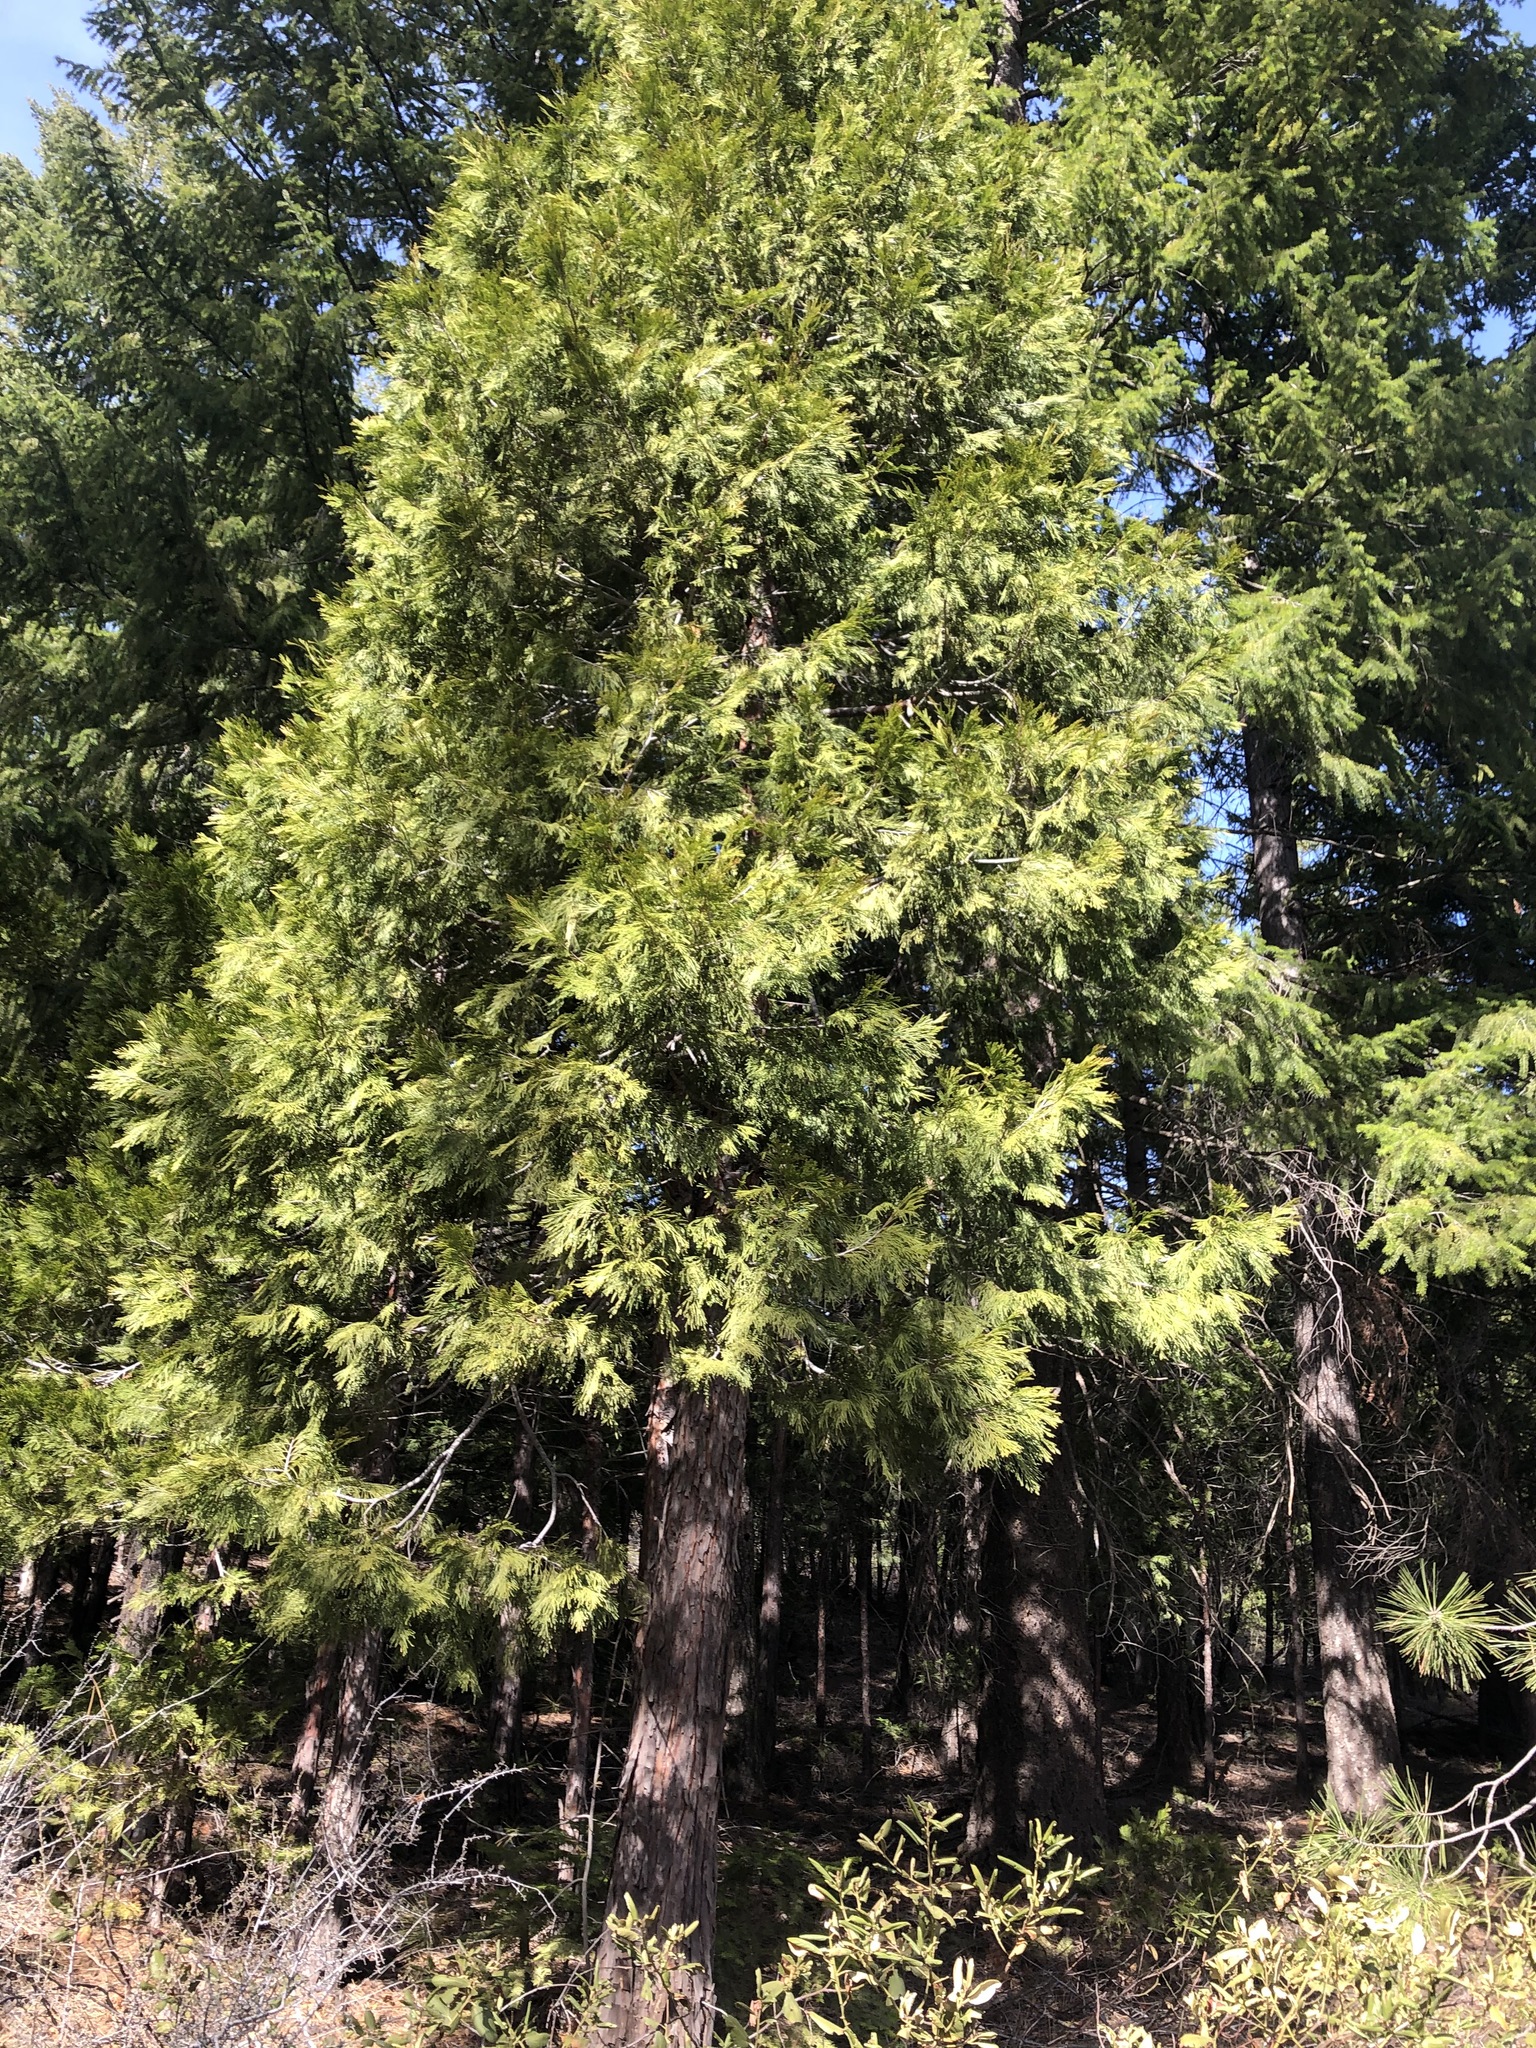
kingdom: Plantae
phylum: Tracheophyta
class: Pinopsida
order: Pinales
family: Cupressaceae
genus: Calocedrus
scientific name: Calocedrus decurrens
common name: Californian incense-cedar
